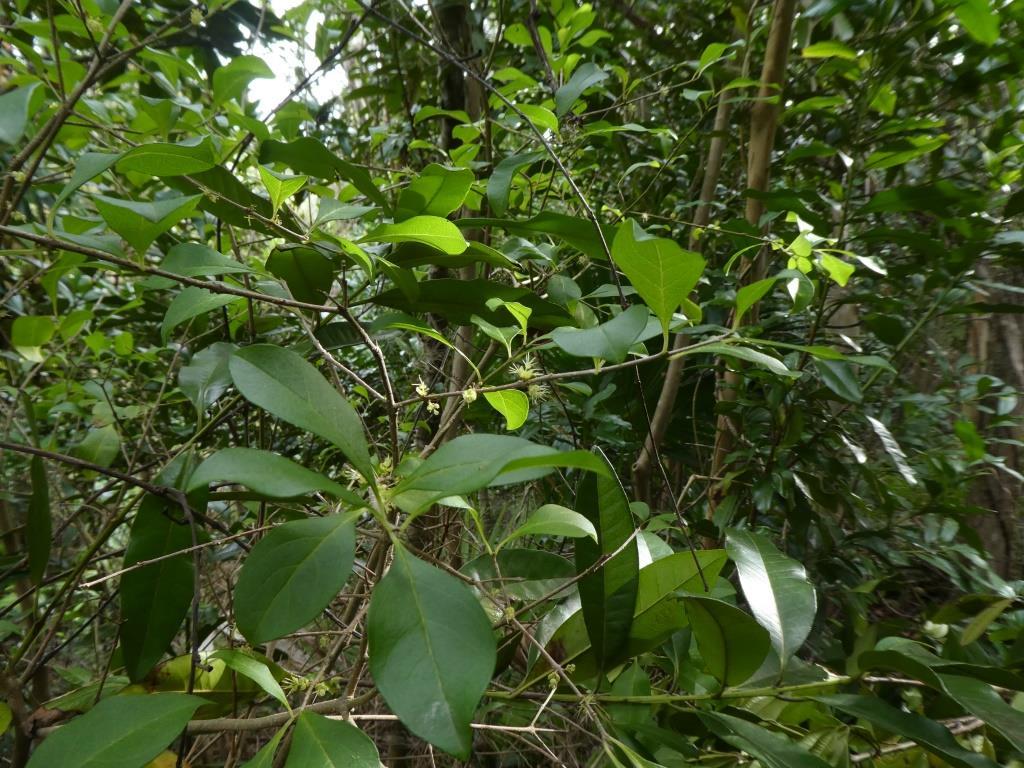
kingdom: Plantae
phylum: Tracheophyta
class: Magnoliopsida
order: Lamiales
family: Oleaceae
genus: Forestiera
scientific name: Forestiera segregata
